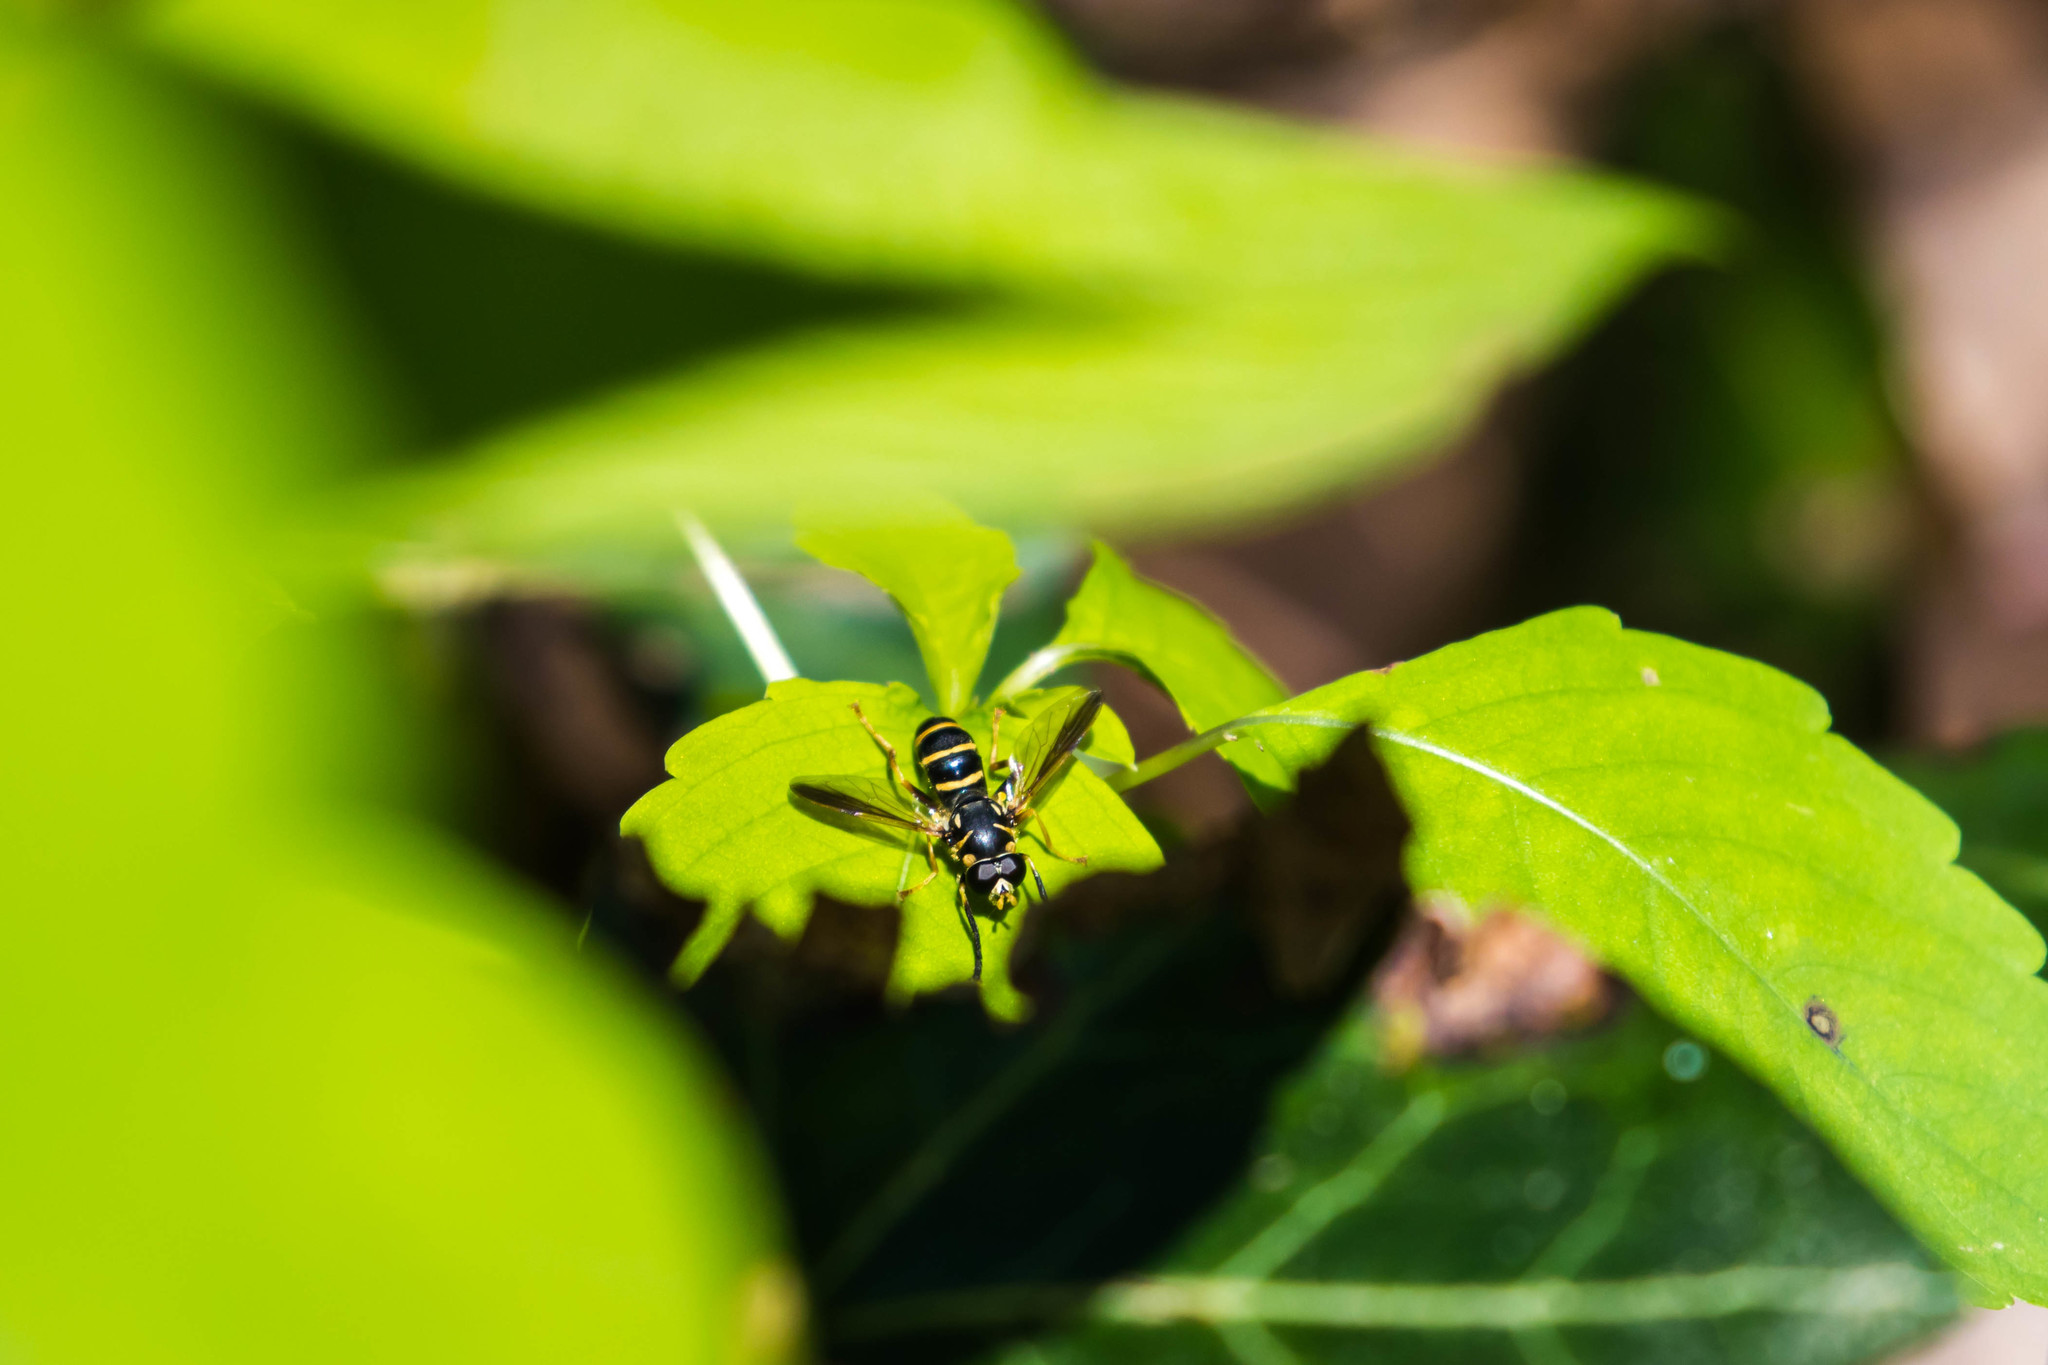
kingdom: Animalia
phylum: Arthropoda
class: Insecta
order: Diptera
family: Syrphidae
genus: Temnostoma
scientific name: Temnostoma trifasciatum
